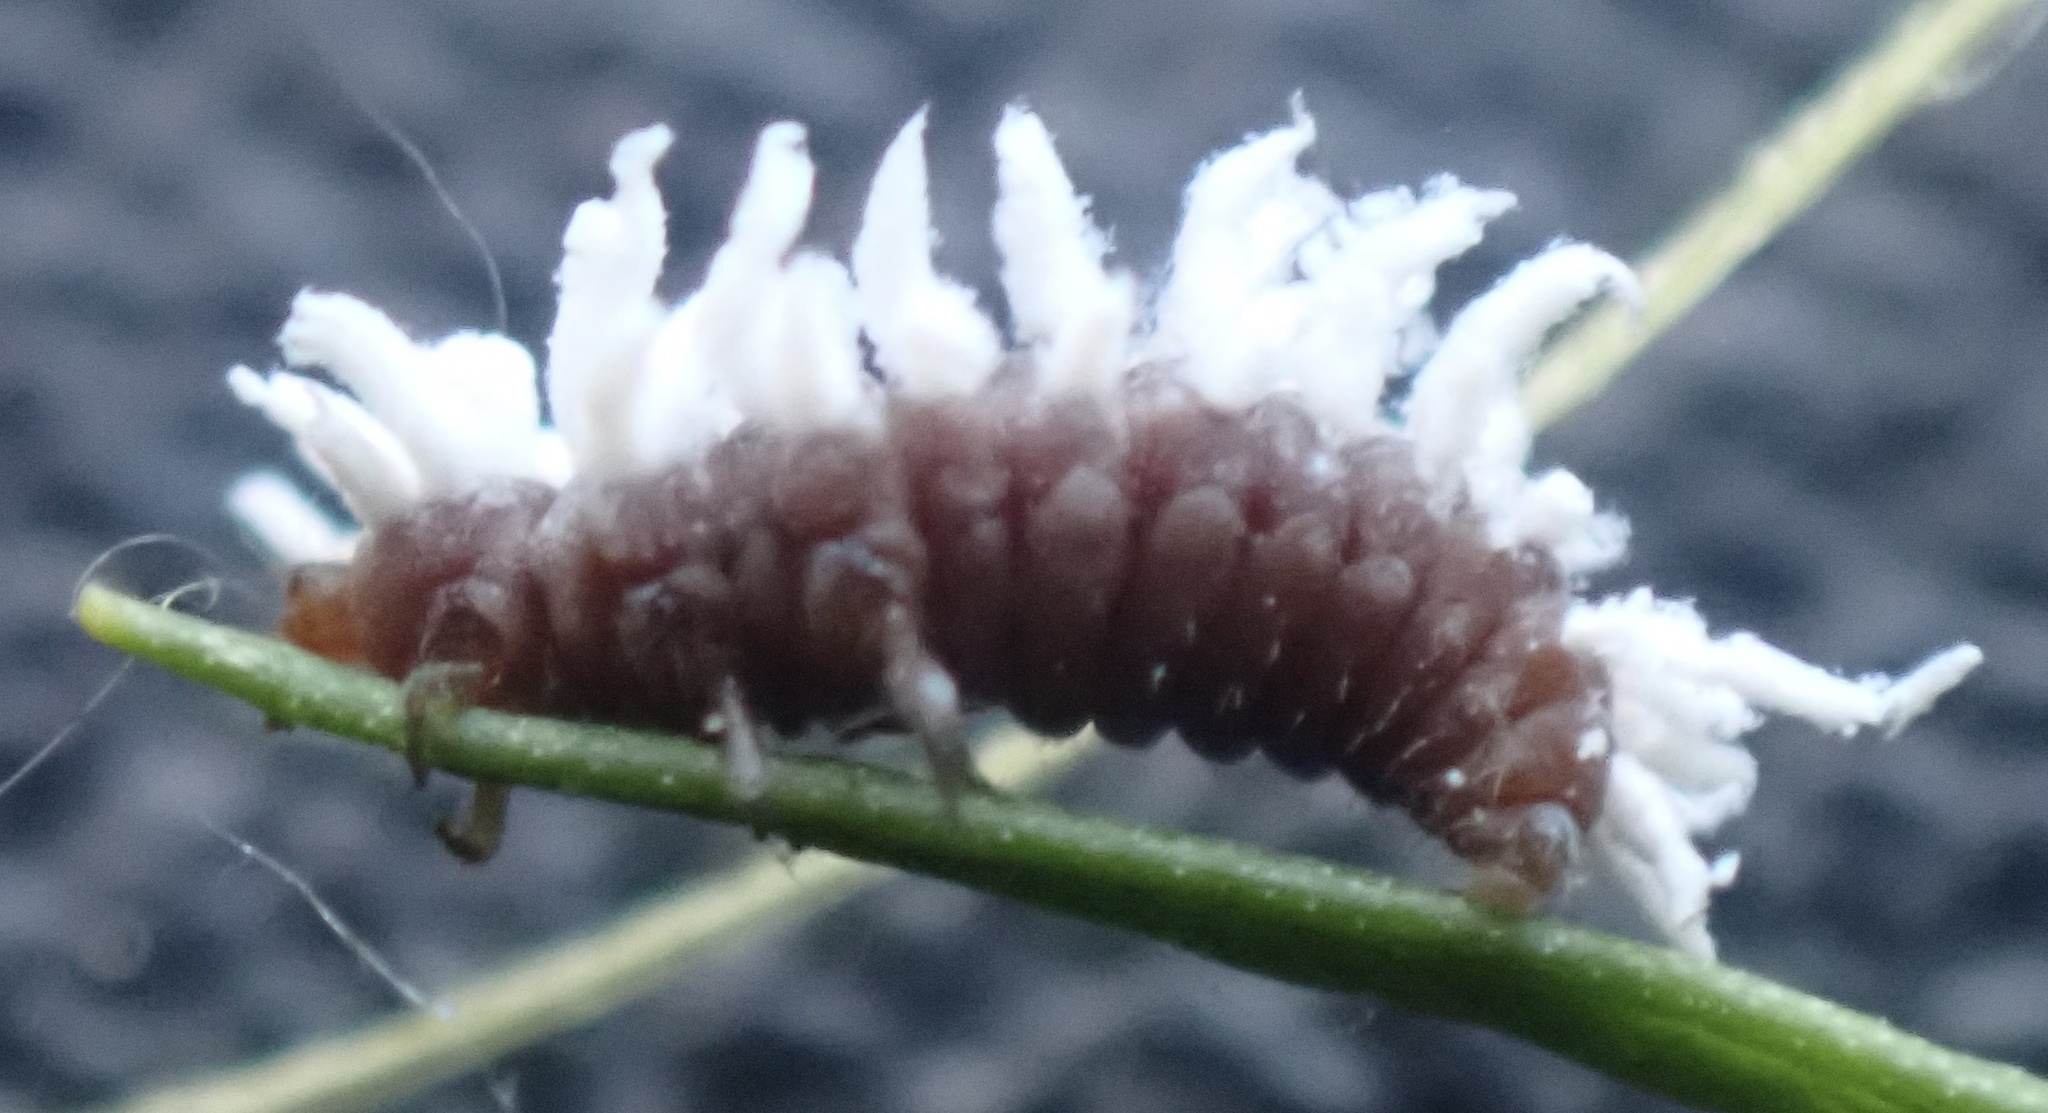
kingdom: Animalia
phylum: Arthropoda
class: Insecta
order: Coleoptera
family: Coccinellidae
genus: Cryptolaemus
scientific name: Cryptolaemus montrouzieri
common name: Mealybug destroyer
